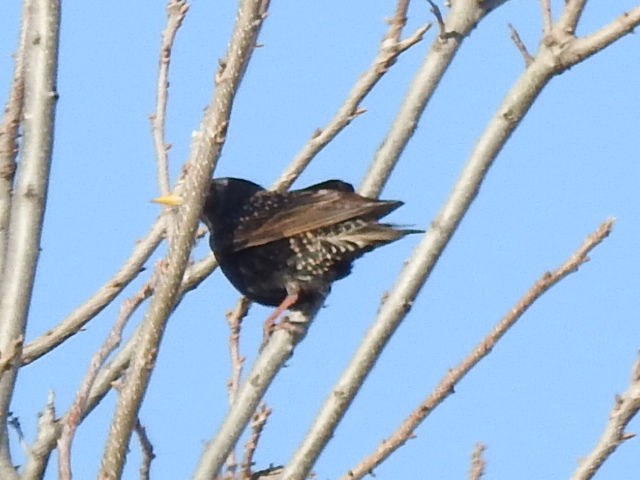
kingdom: Animalia
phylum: Chordata
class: Aves
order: Passeriformes
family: Sturnidae
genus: Sturnus
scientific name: Sturnus vulgaris
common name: Common starling
